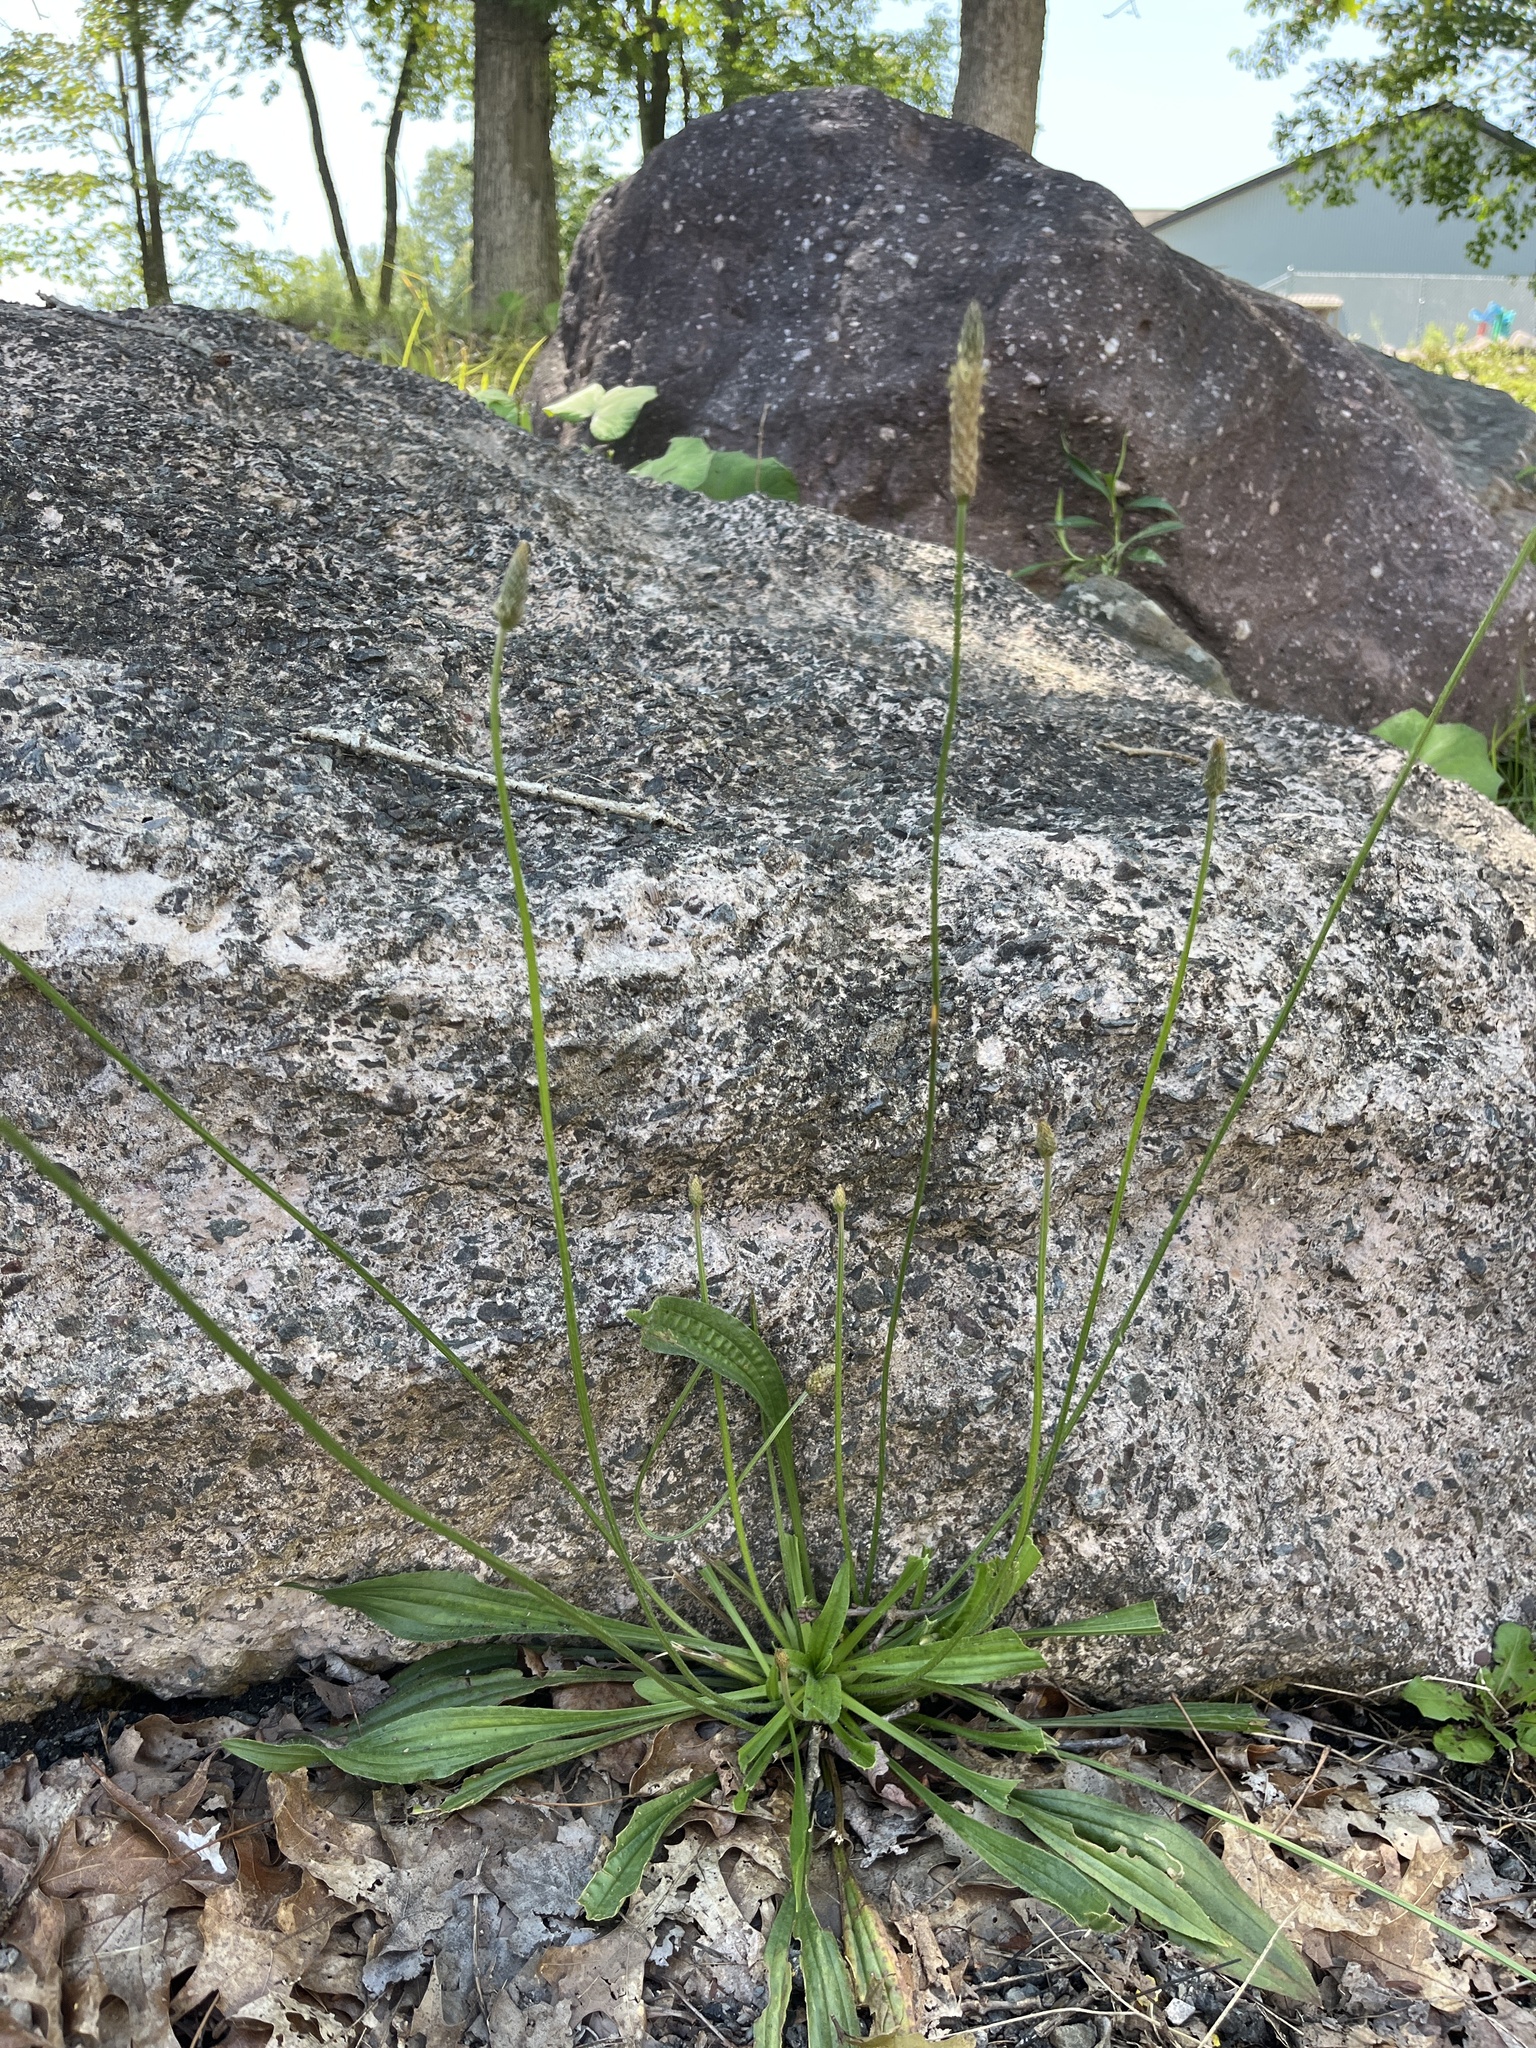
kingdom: Plantae
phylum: Tracheophyta
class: Magnoliopsida
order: Lamiales
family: Plantaginaceae
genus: Plantago
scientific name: Plantago lanceolata
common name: Ribwort plantain
